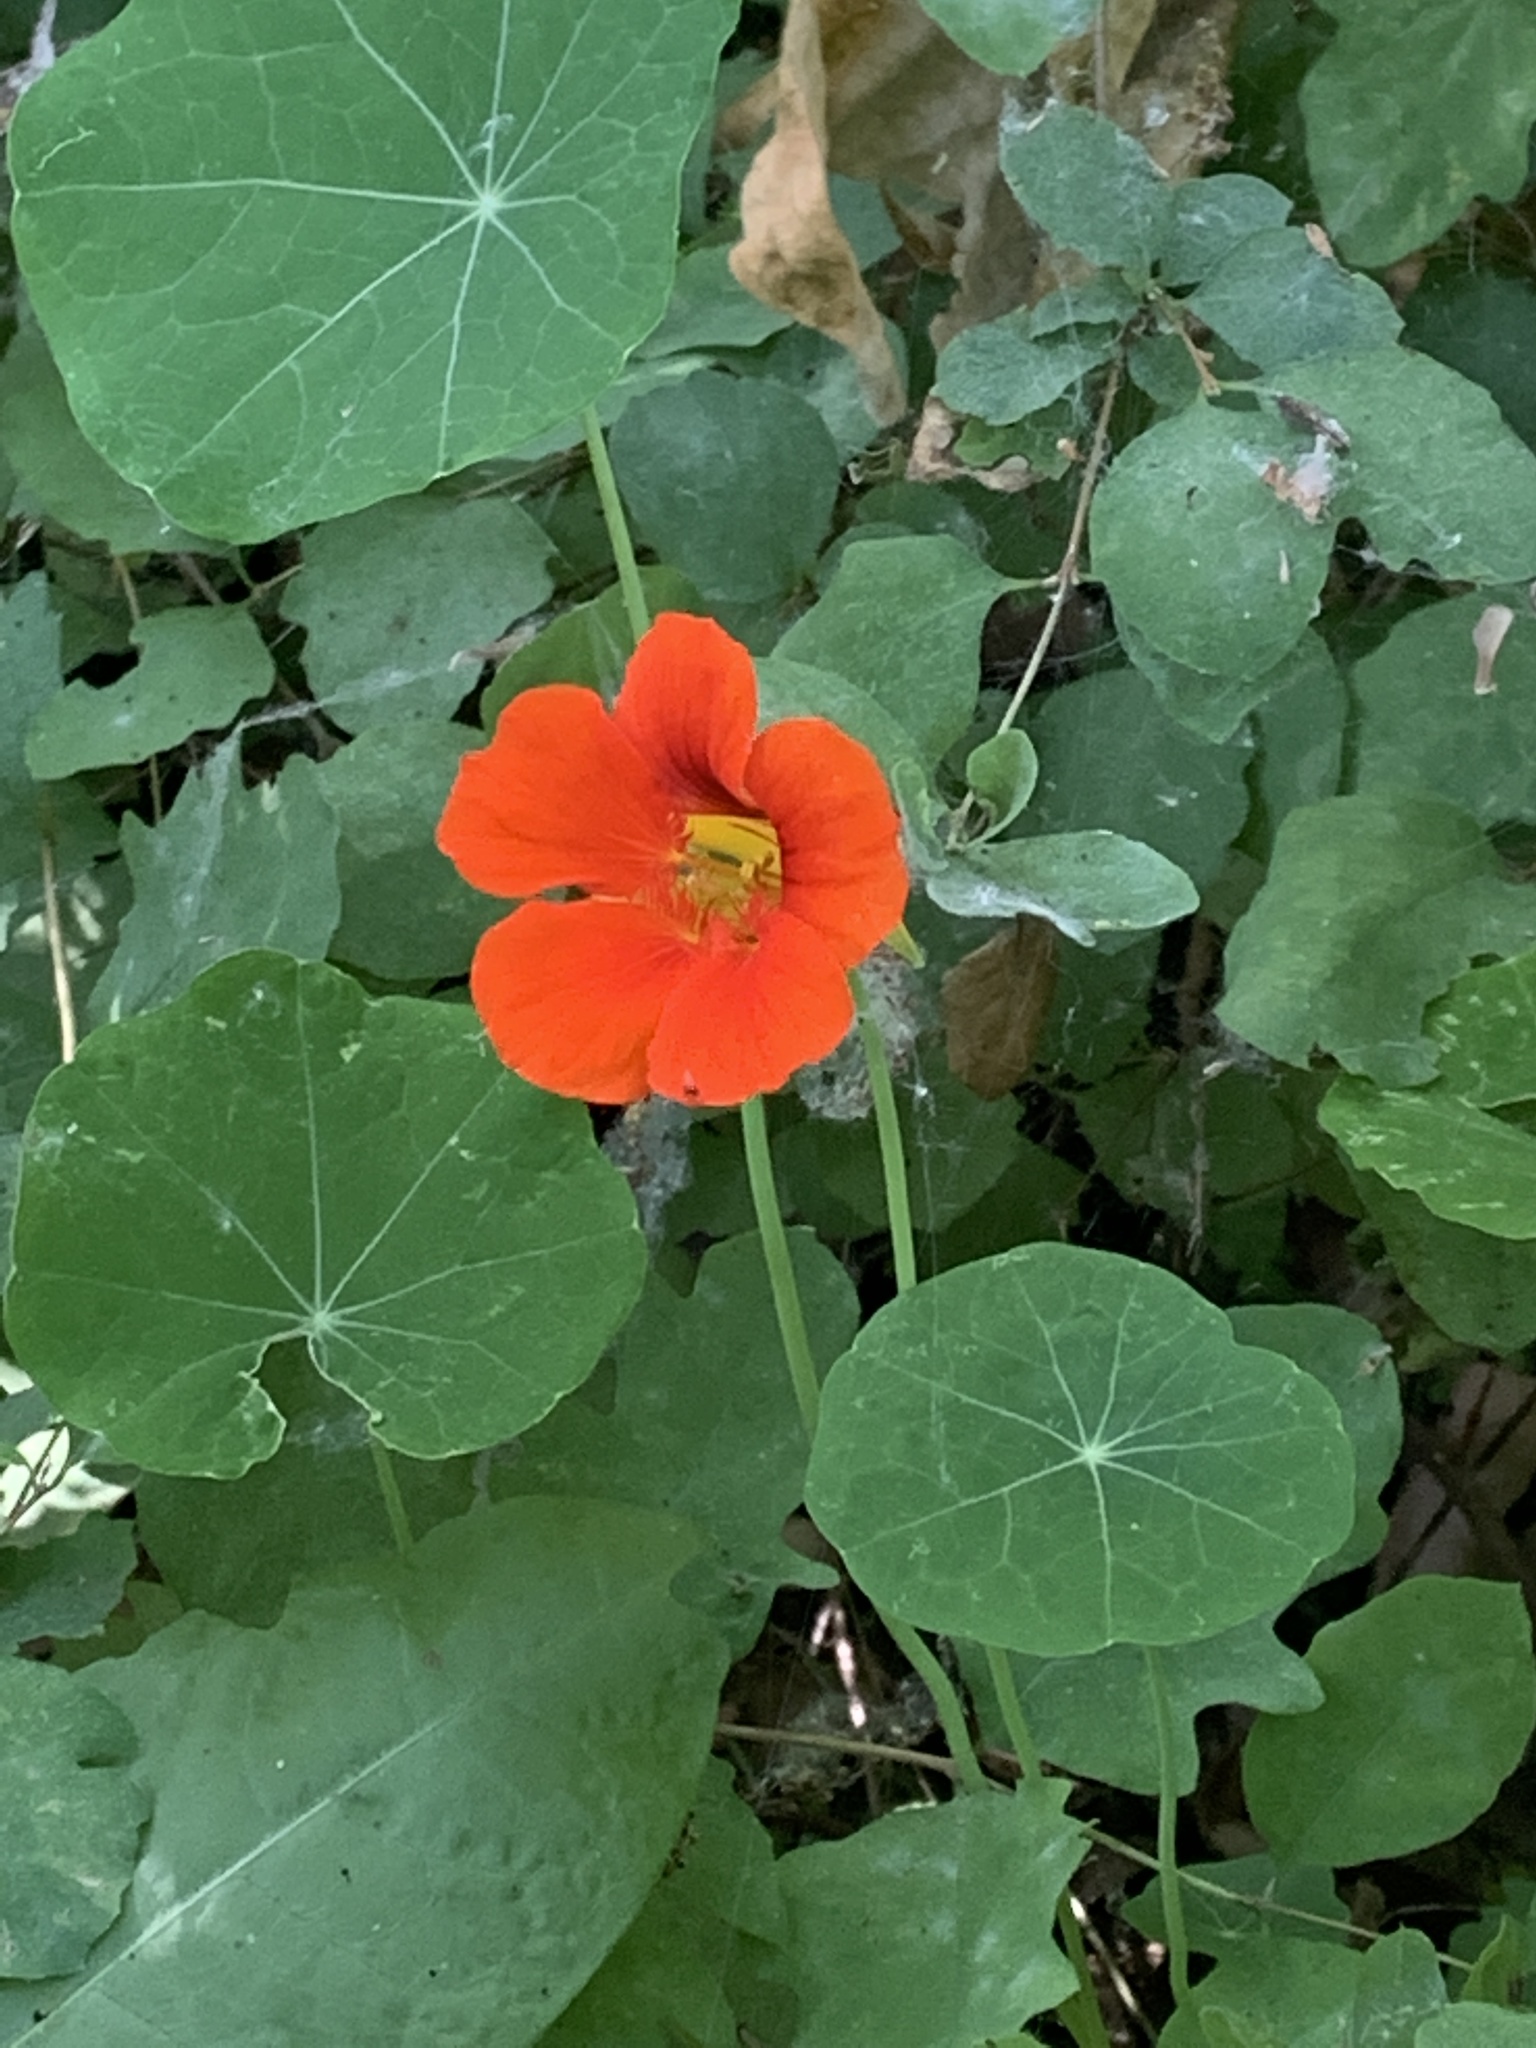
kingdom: Plantae
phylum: Tracheophyta
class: Magnoliopsida
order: Brassicales
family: Tropaeolaceae
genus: Tropaeolum
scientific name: Tropaeolum majus
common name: Nasturtium
